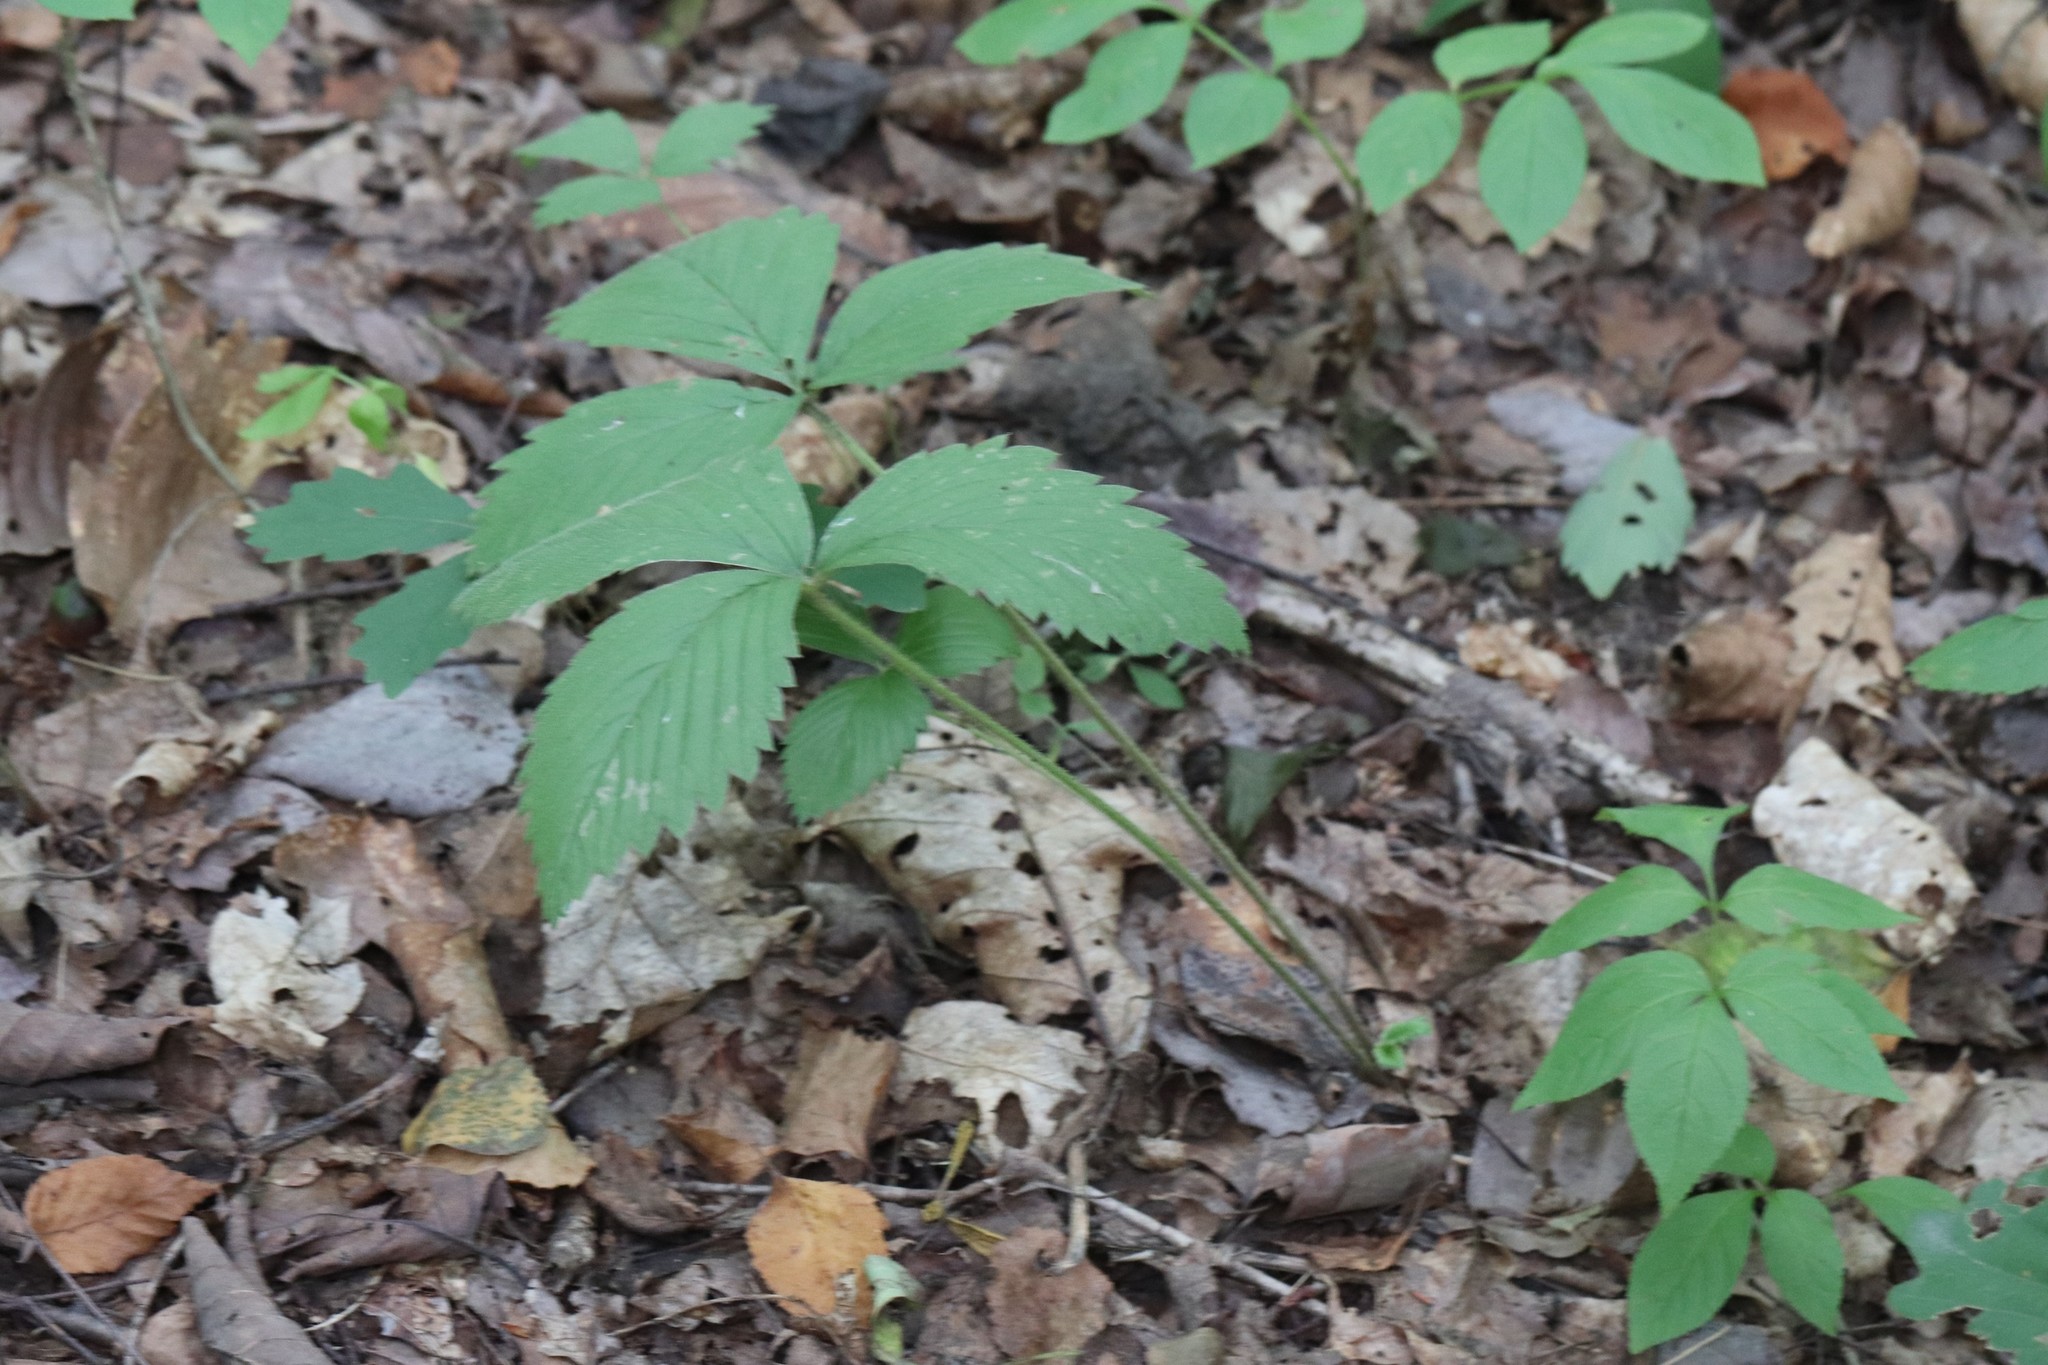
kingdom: Plantae
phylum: Tracheophyta
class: Magnoliopsida
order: Rosales
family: Rosaceae
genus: Fragaria
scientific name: Fragaria orientalis
